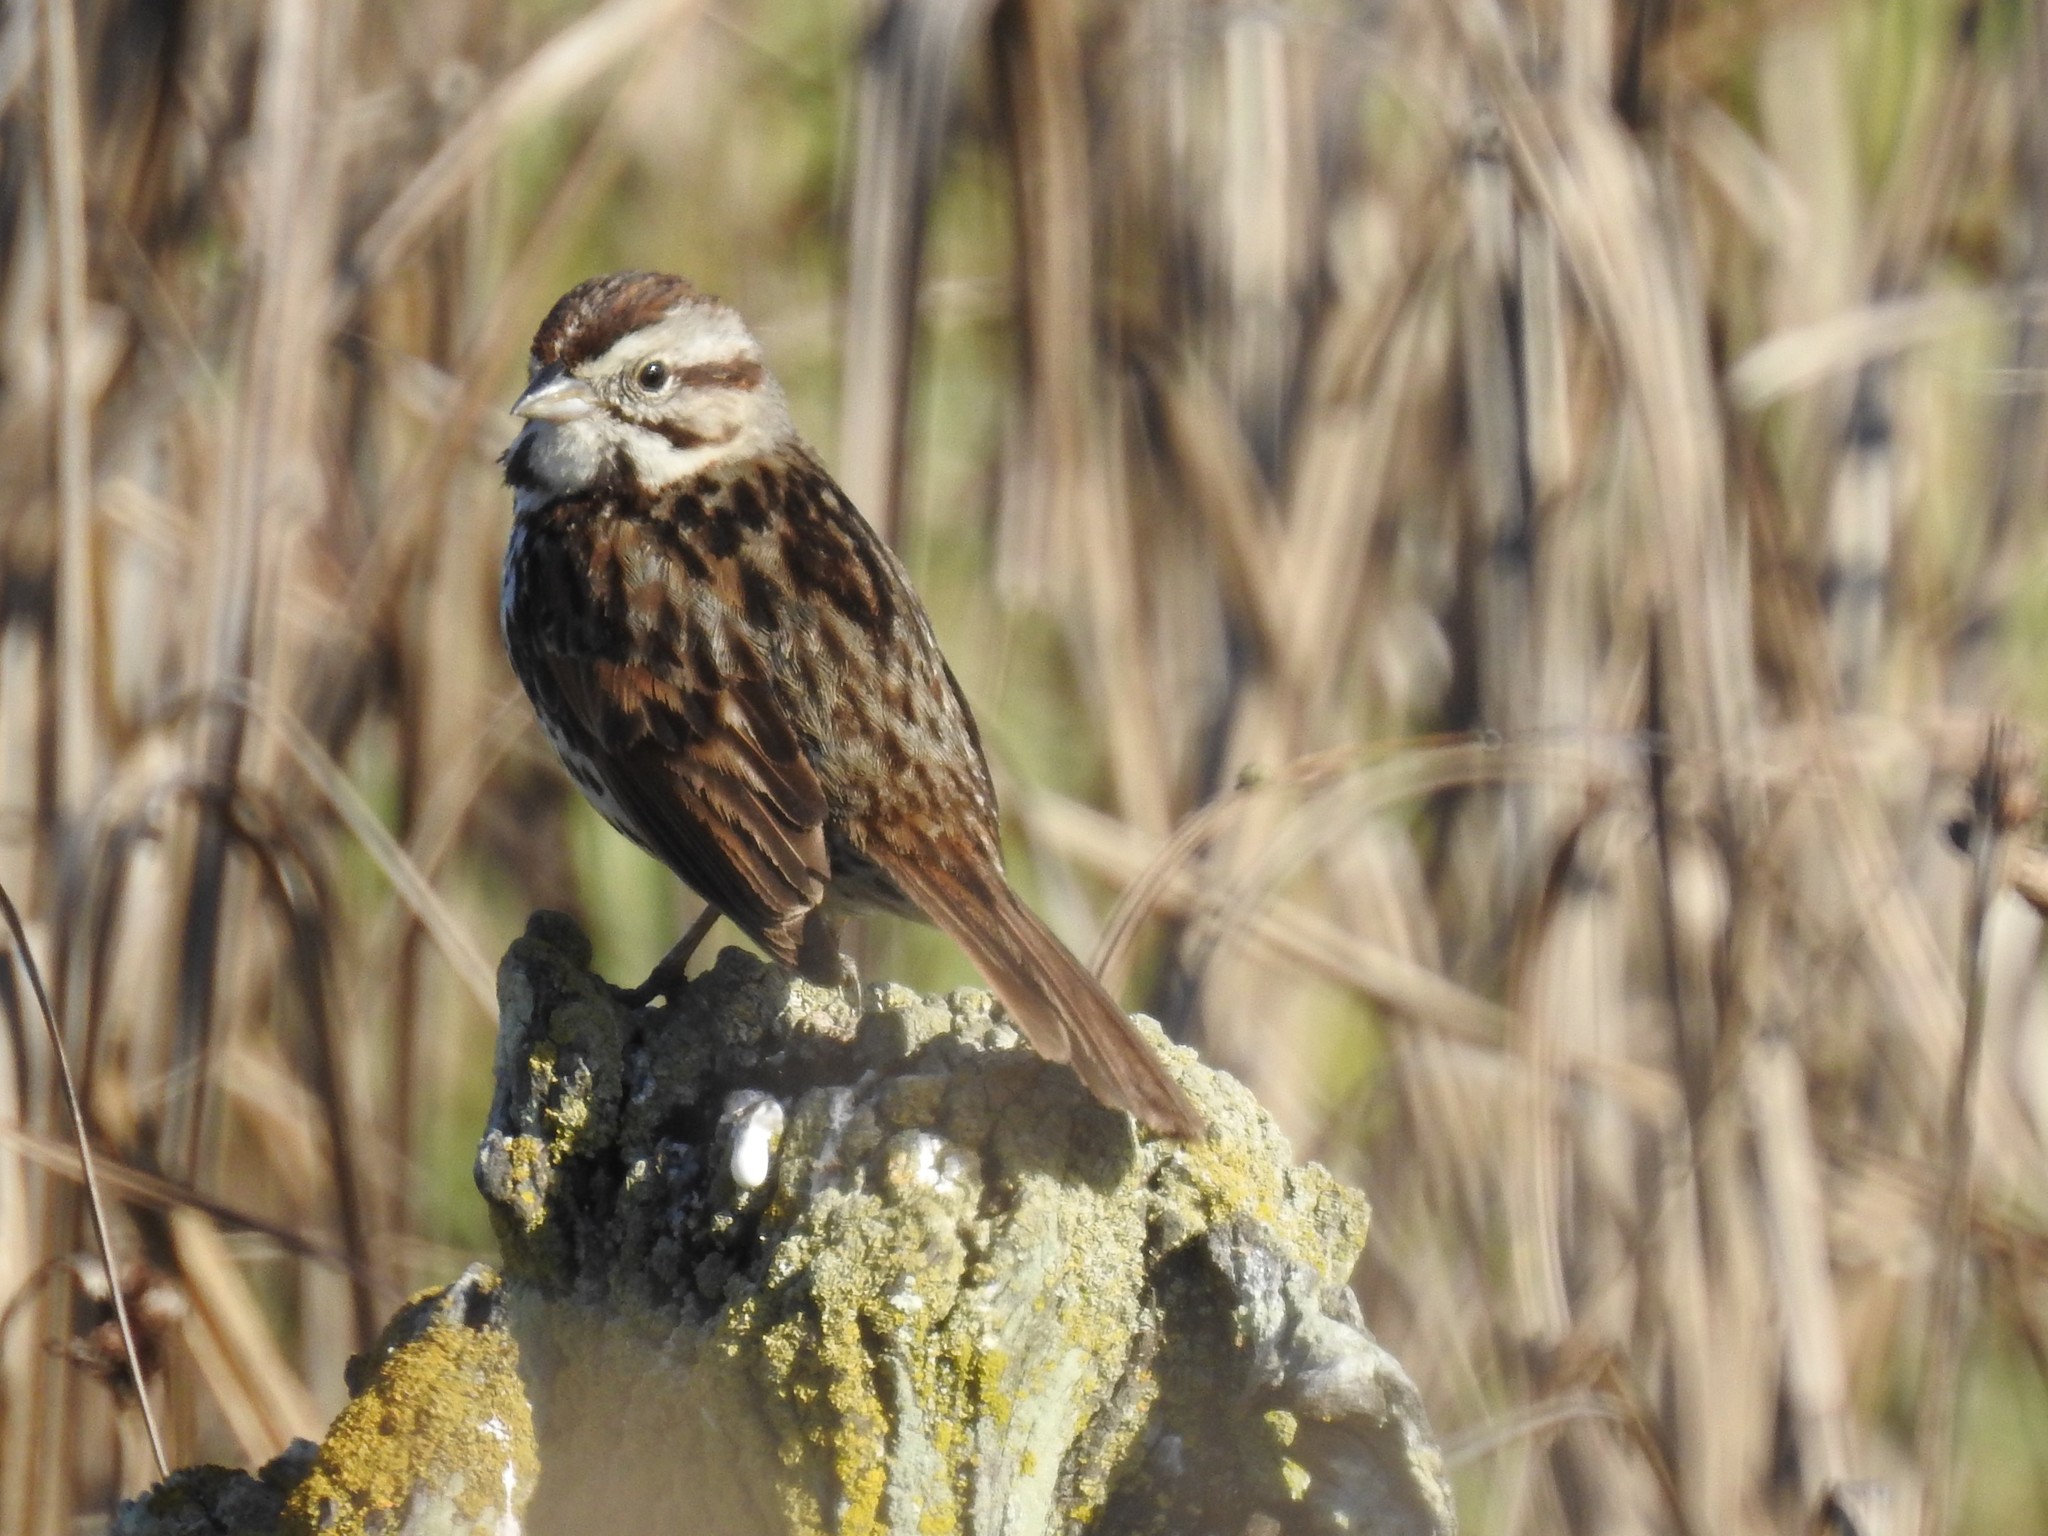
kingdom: Animalia
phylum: Chordata
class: Aves
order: Passeriformes
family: Passerellidae
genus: Melospiza
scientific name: Melospiza melodia
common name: Song sparrow
